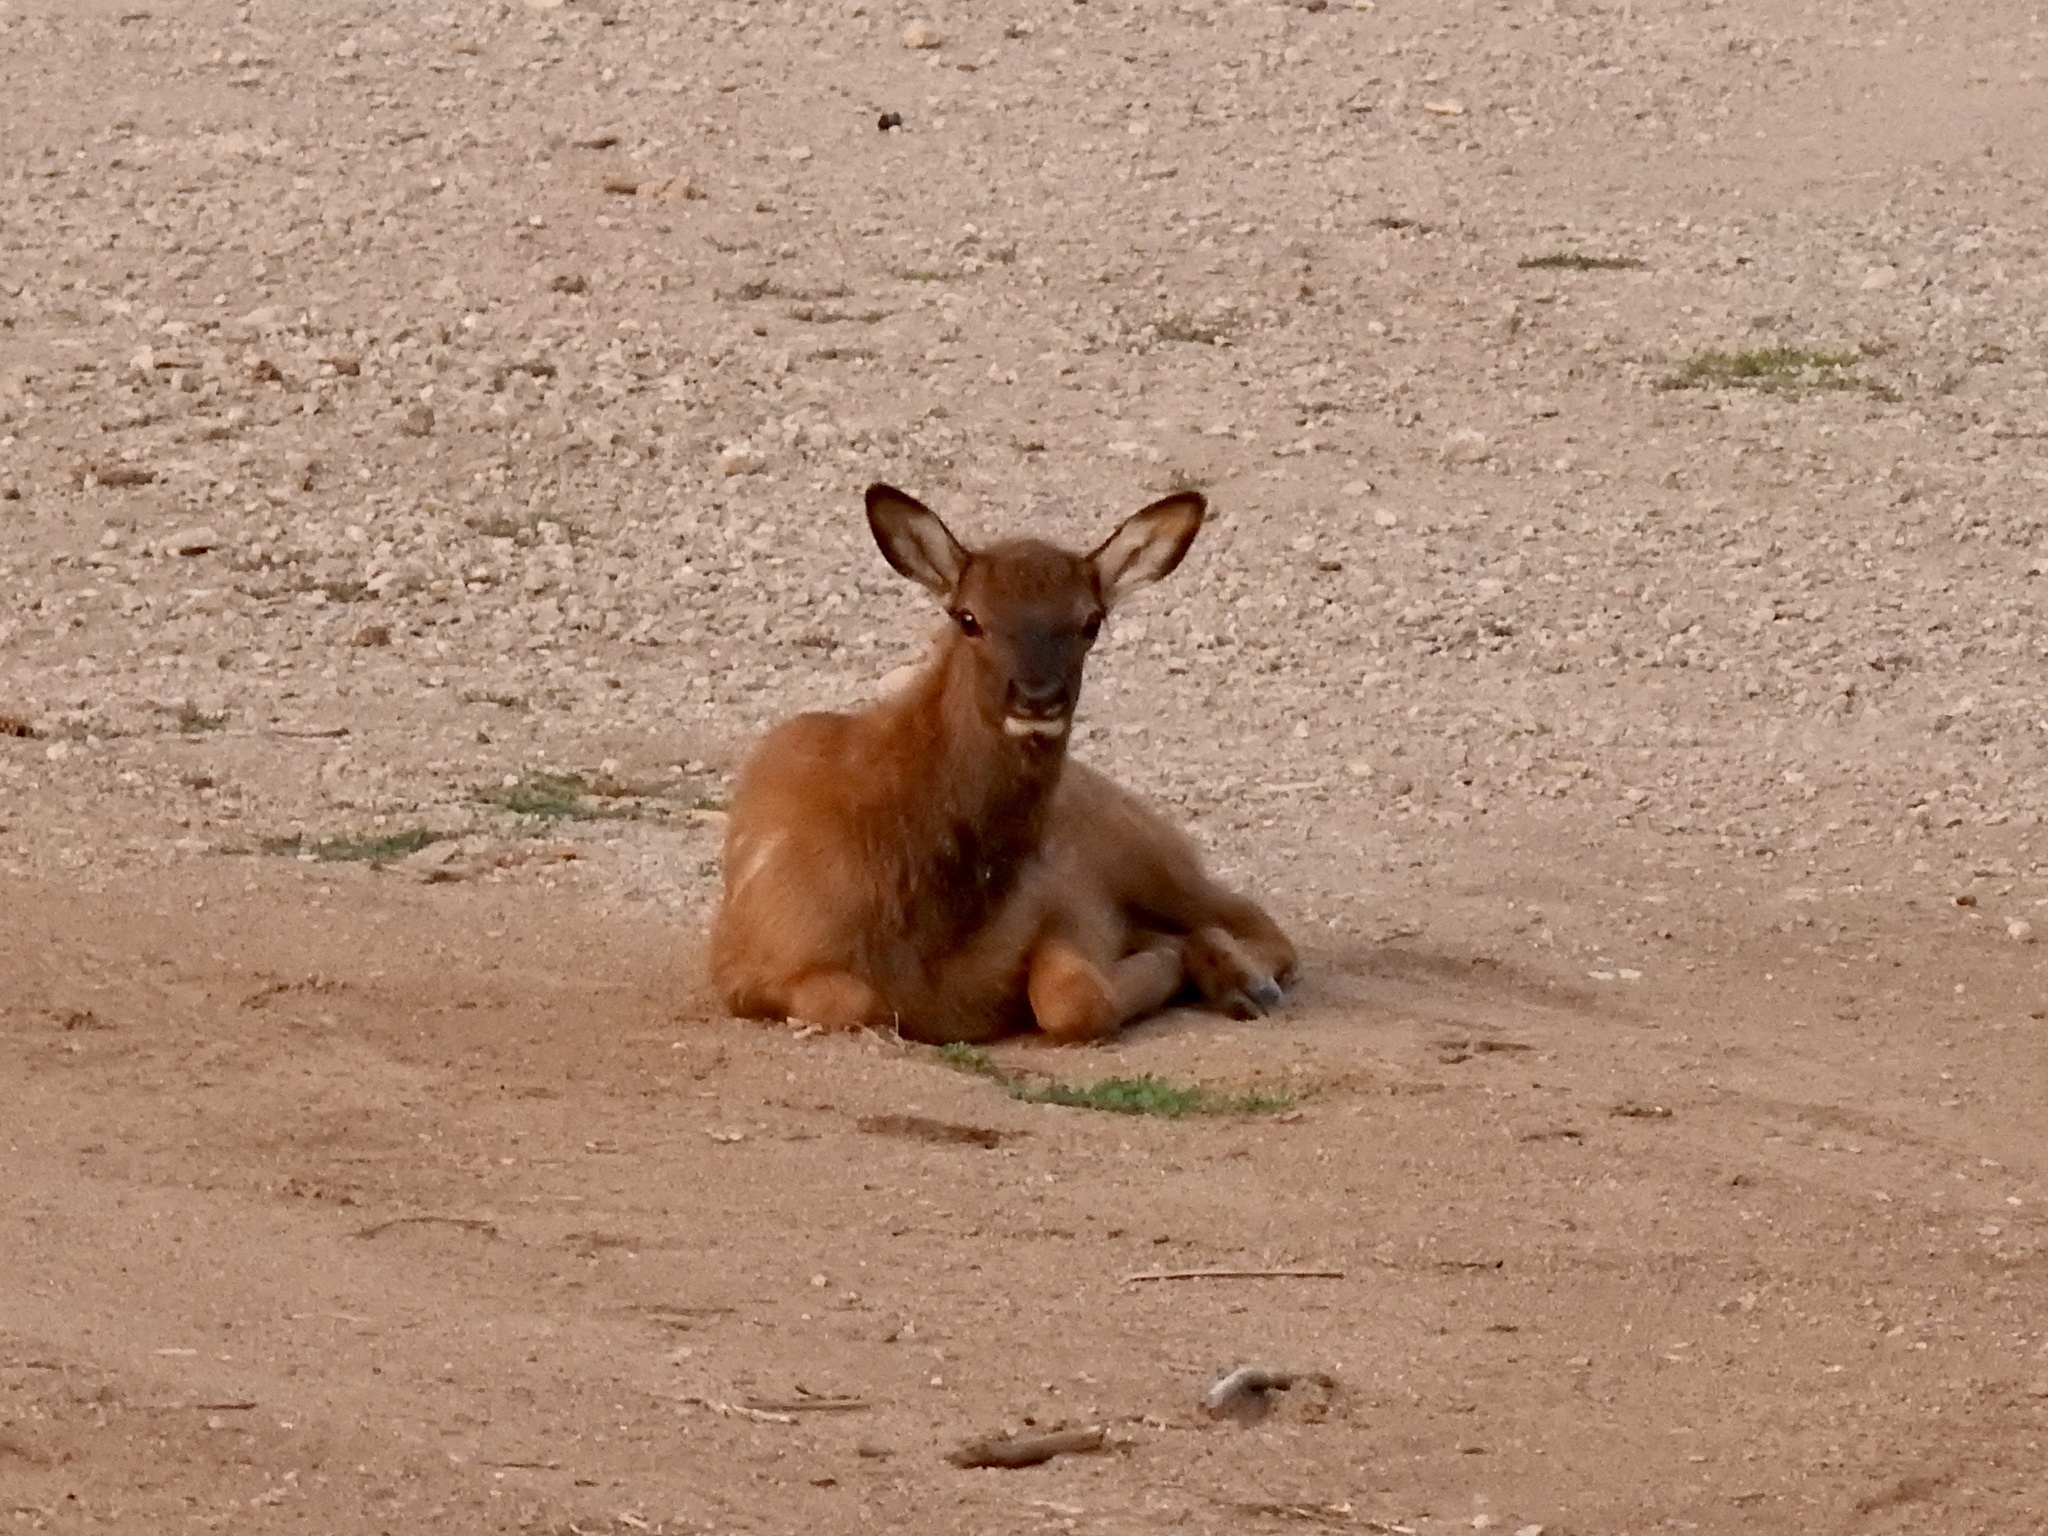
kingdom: Animalia
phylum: Chordata
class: Mammalia
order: Artiodactyla
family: Cervidae
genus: Cervus
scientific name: Cervus elaphus
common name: Red deer
